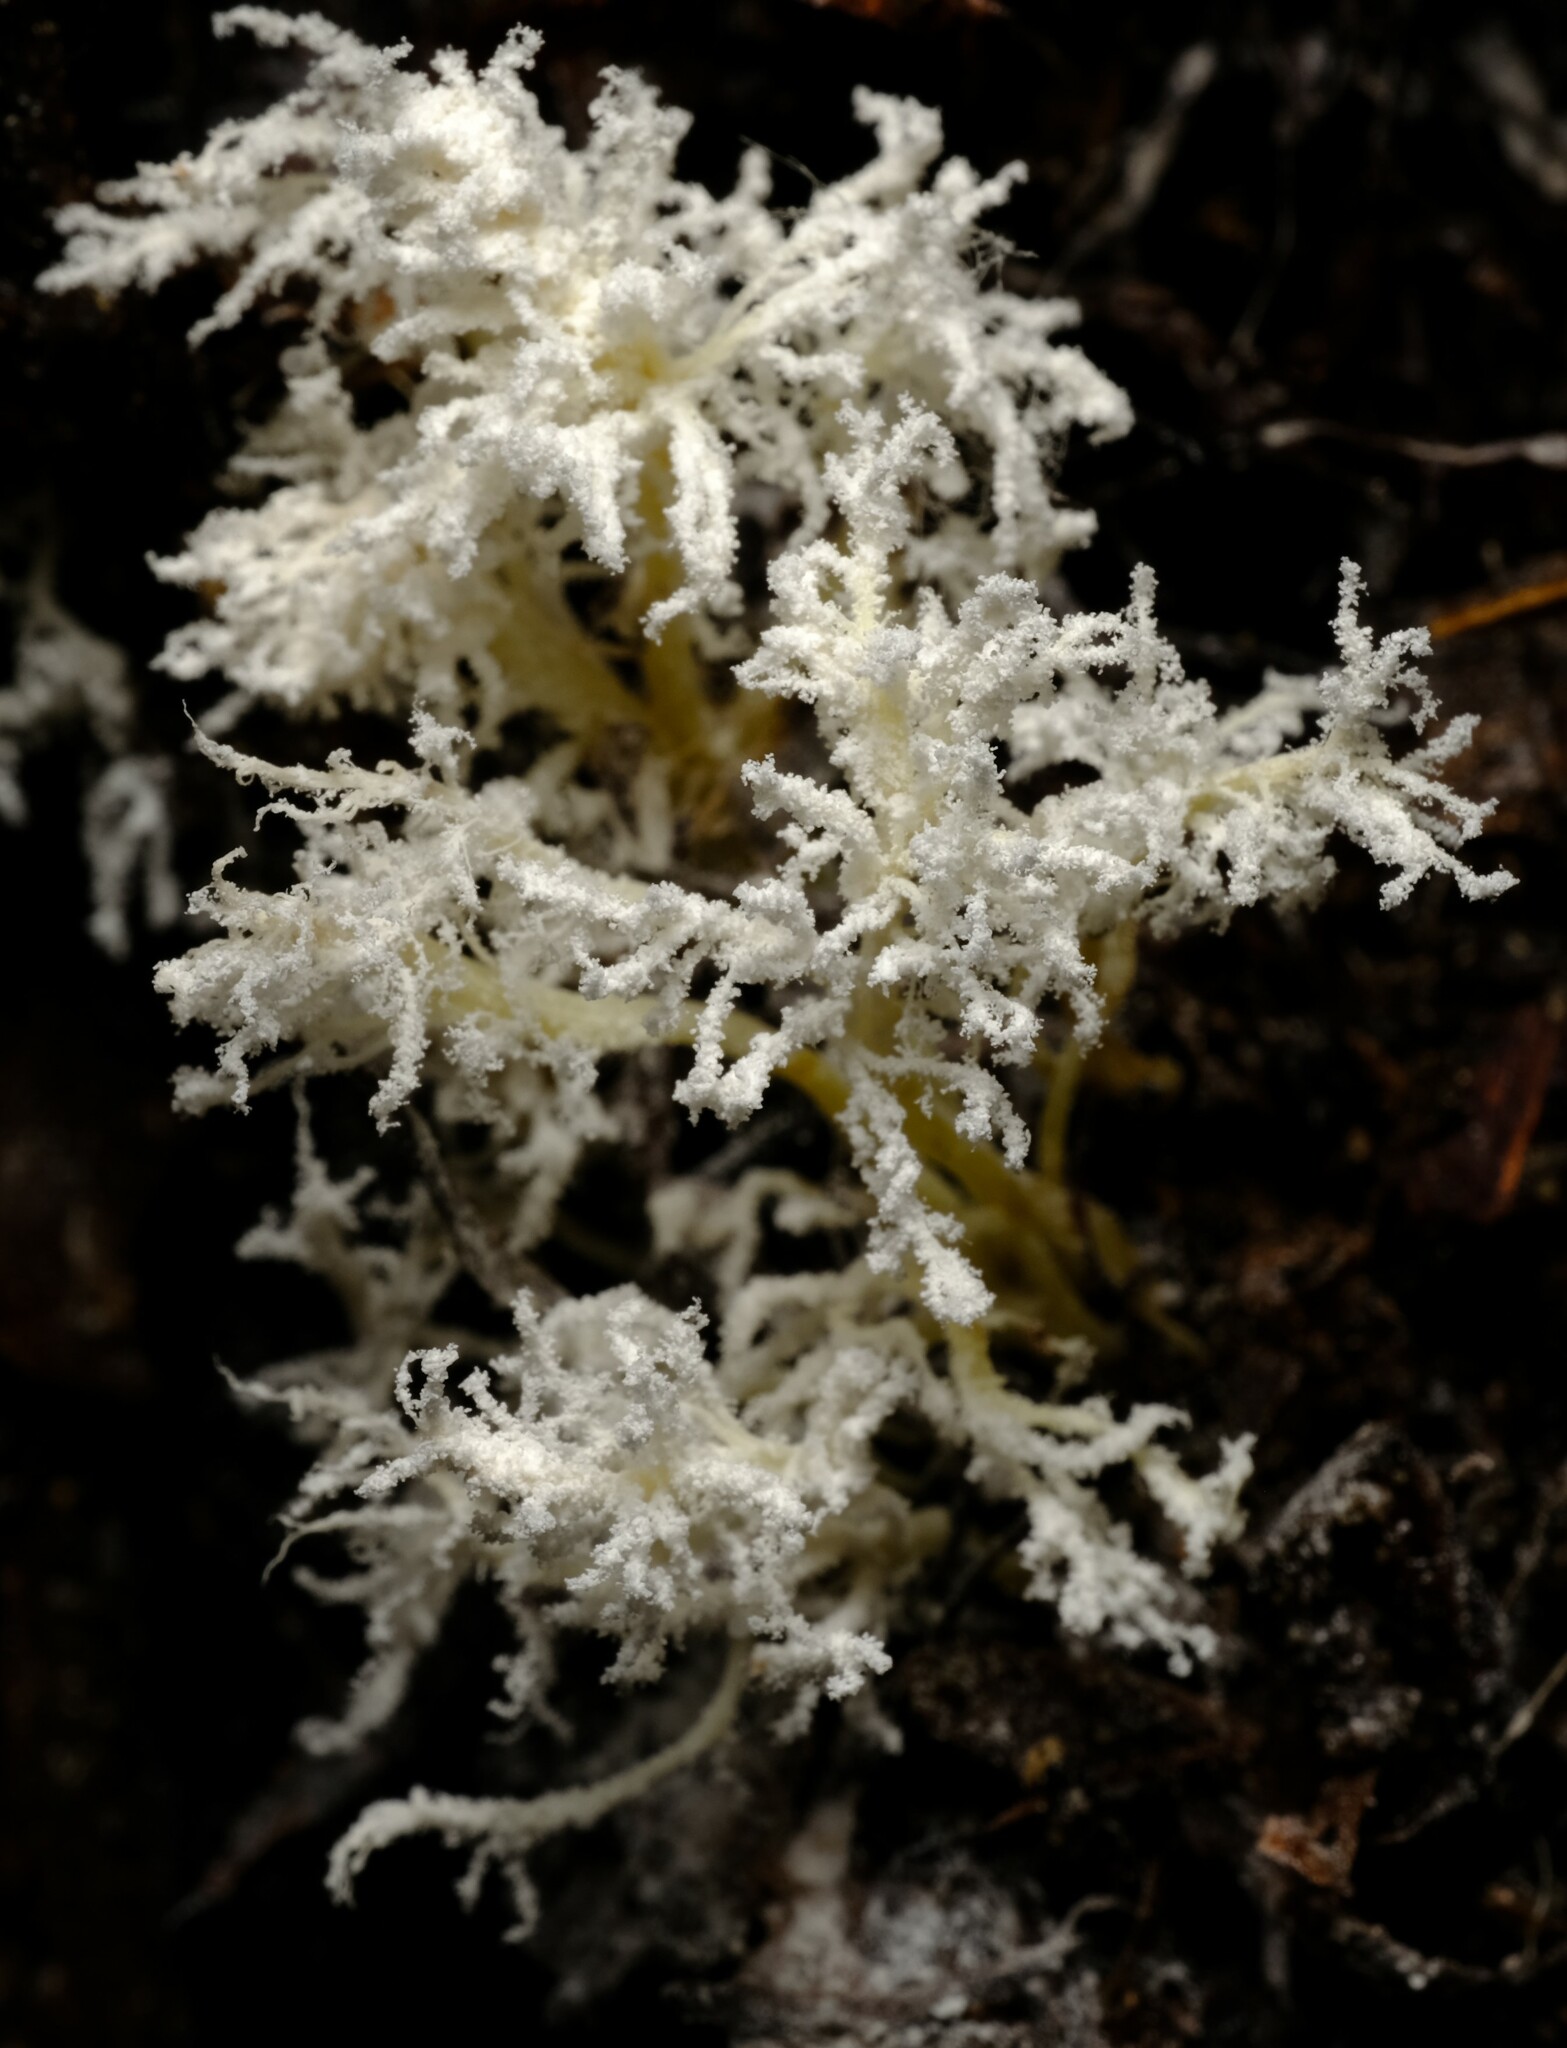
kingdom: Fungi
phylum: Ascomycota
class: Sordariomycetes
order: Hypocreales
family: Cordycipitaceae
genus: Cordyceps
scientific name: Cordyceps tenuipes
